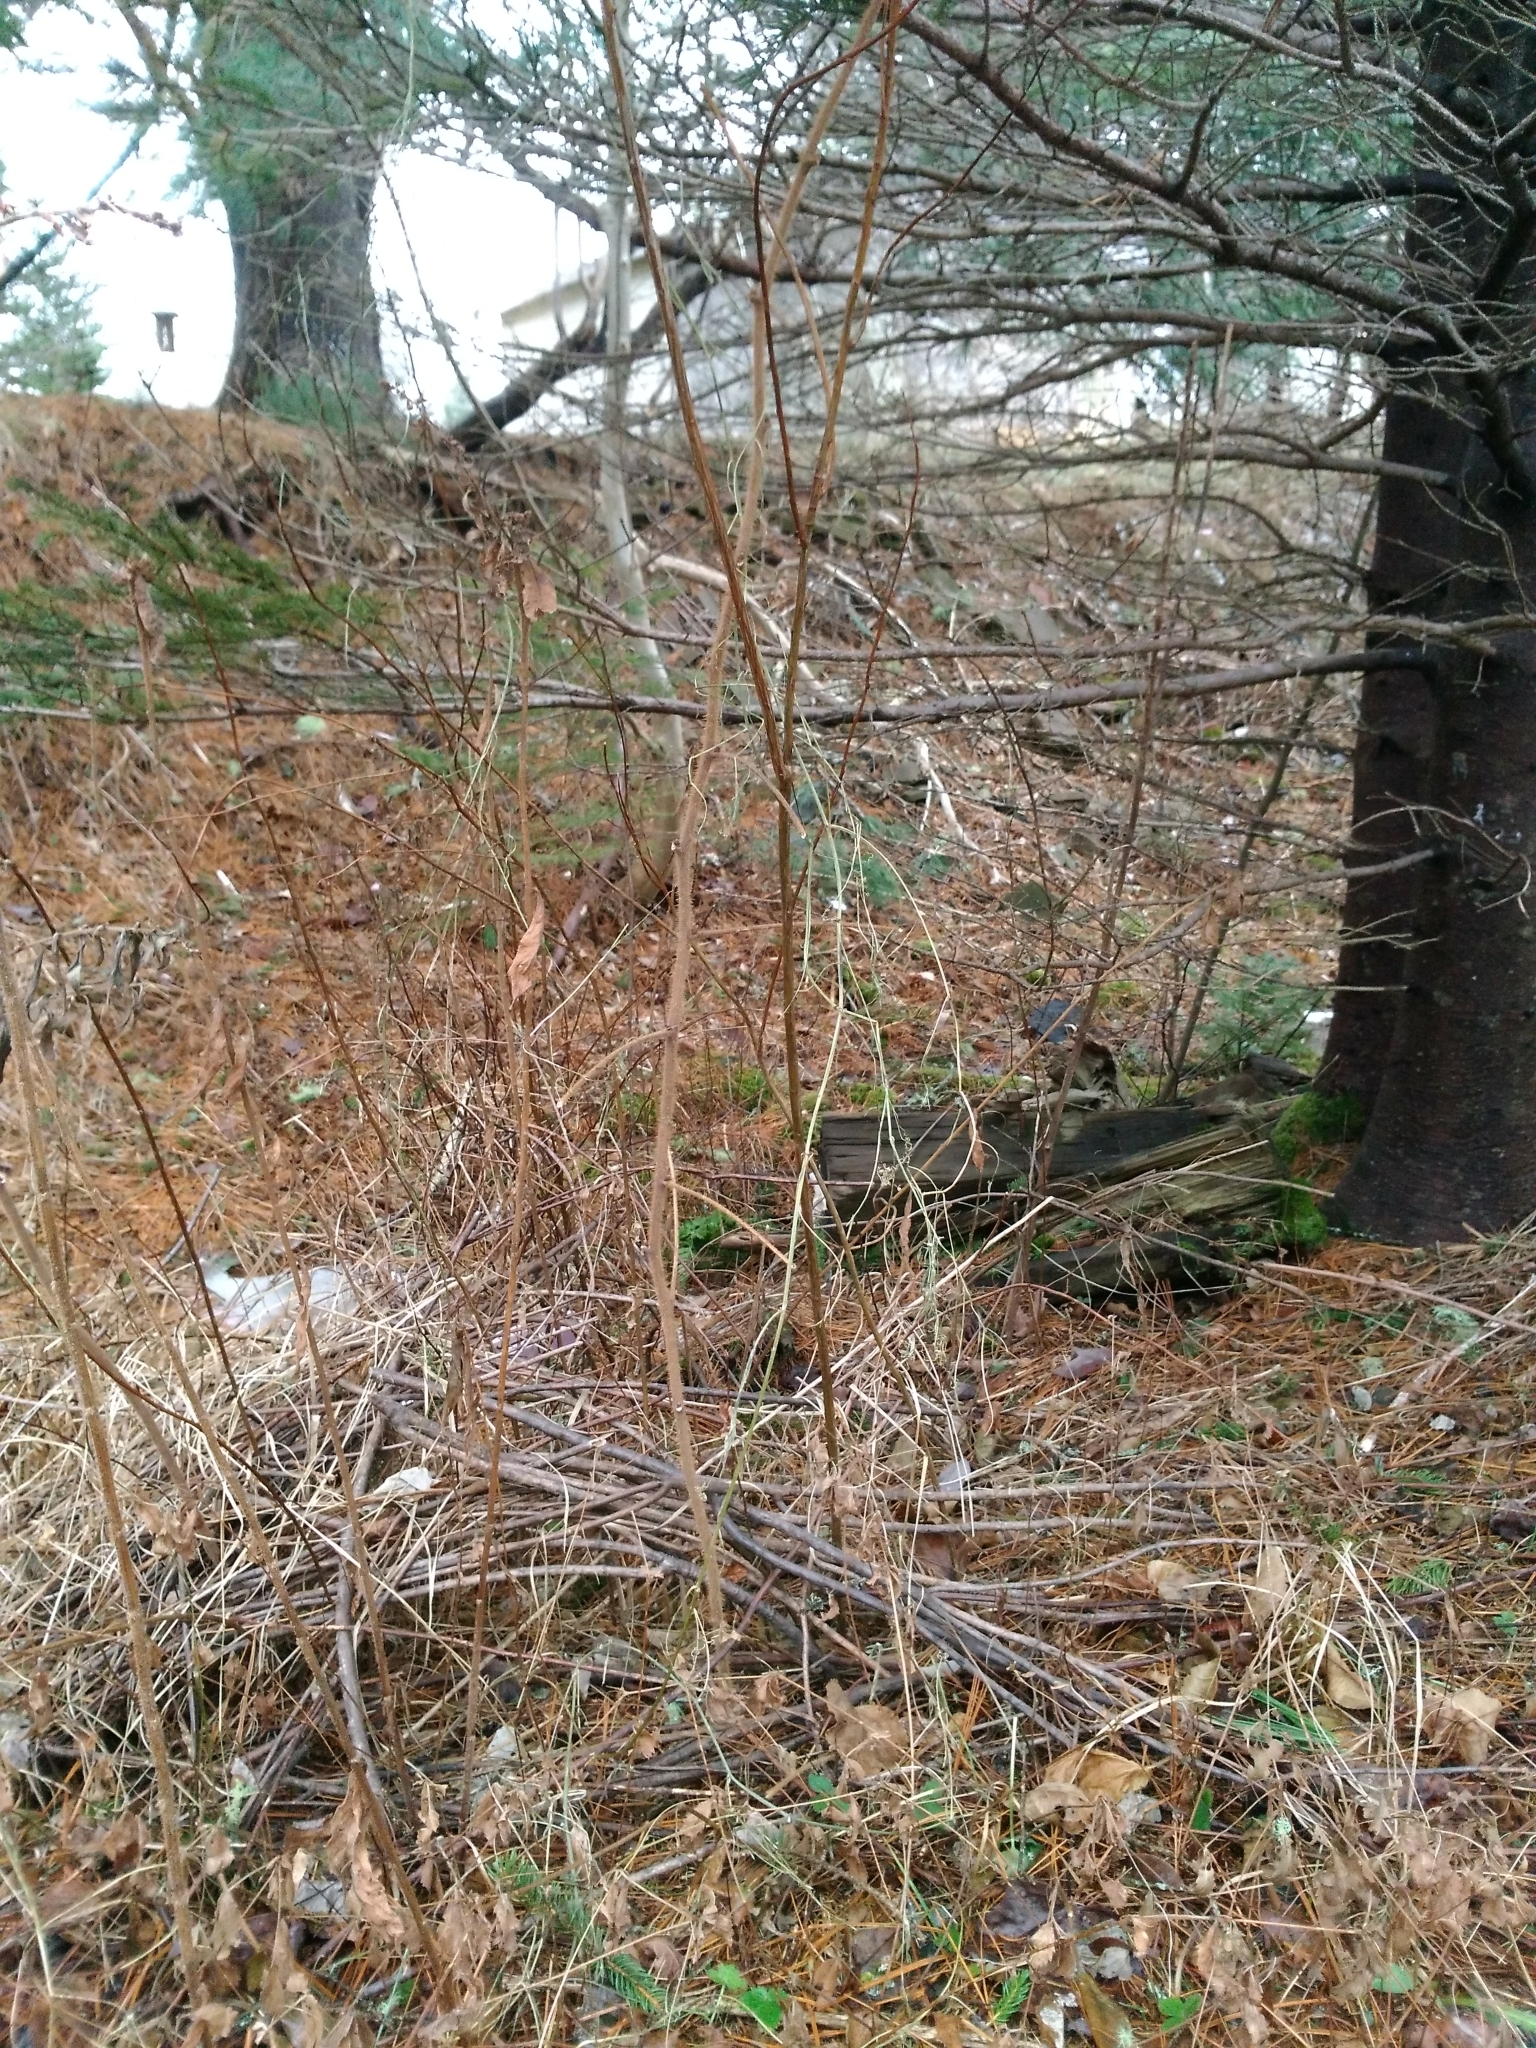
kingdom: Plantae
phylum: Tracheophyta
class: Magnoliopsida
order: Fabales
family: Fabaceae
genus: Vicia
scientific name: Vicia cracca
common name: Bird vetch
